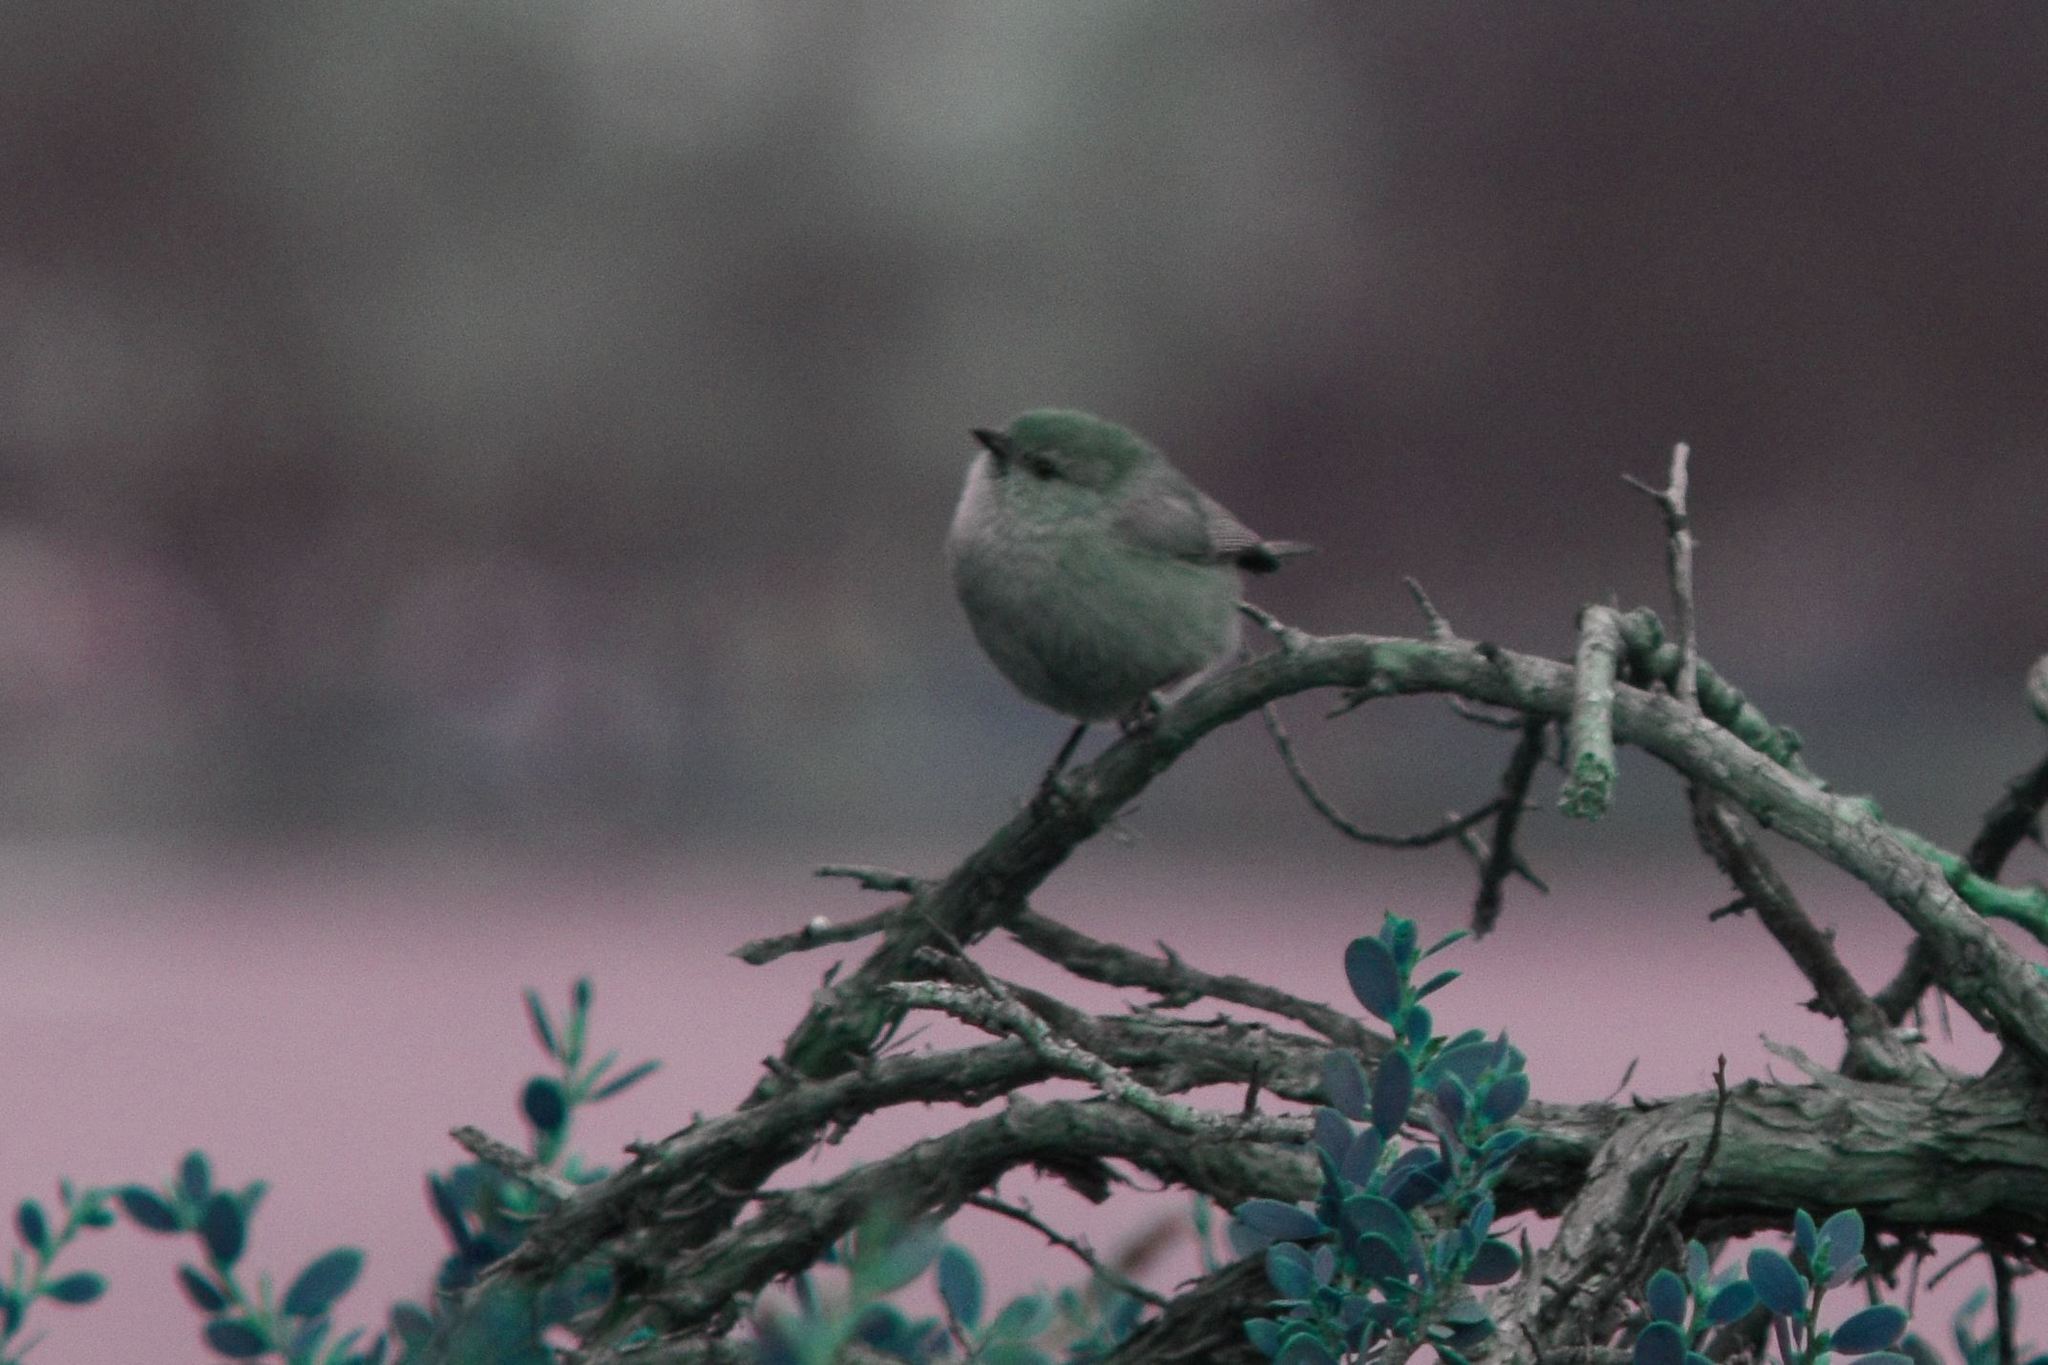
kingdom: Animalia
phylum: Chordata
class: Aves
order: Passeriformes
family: Aegithalidae
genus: Psaltriparus
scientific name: Psaltriparus minimus
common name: American bushtit
